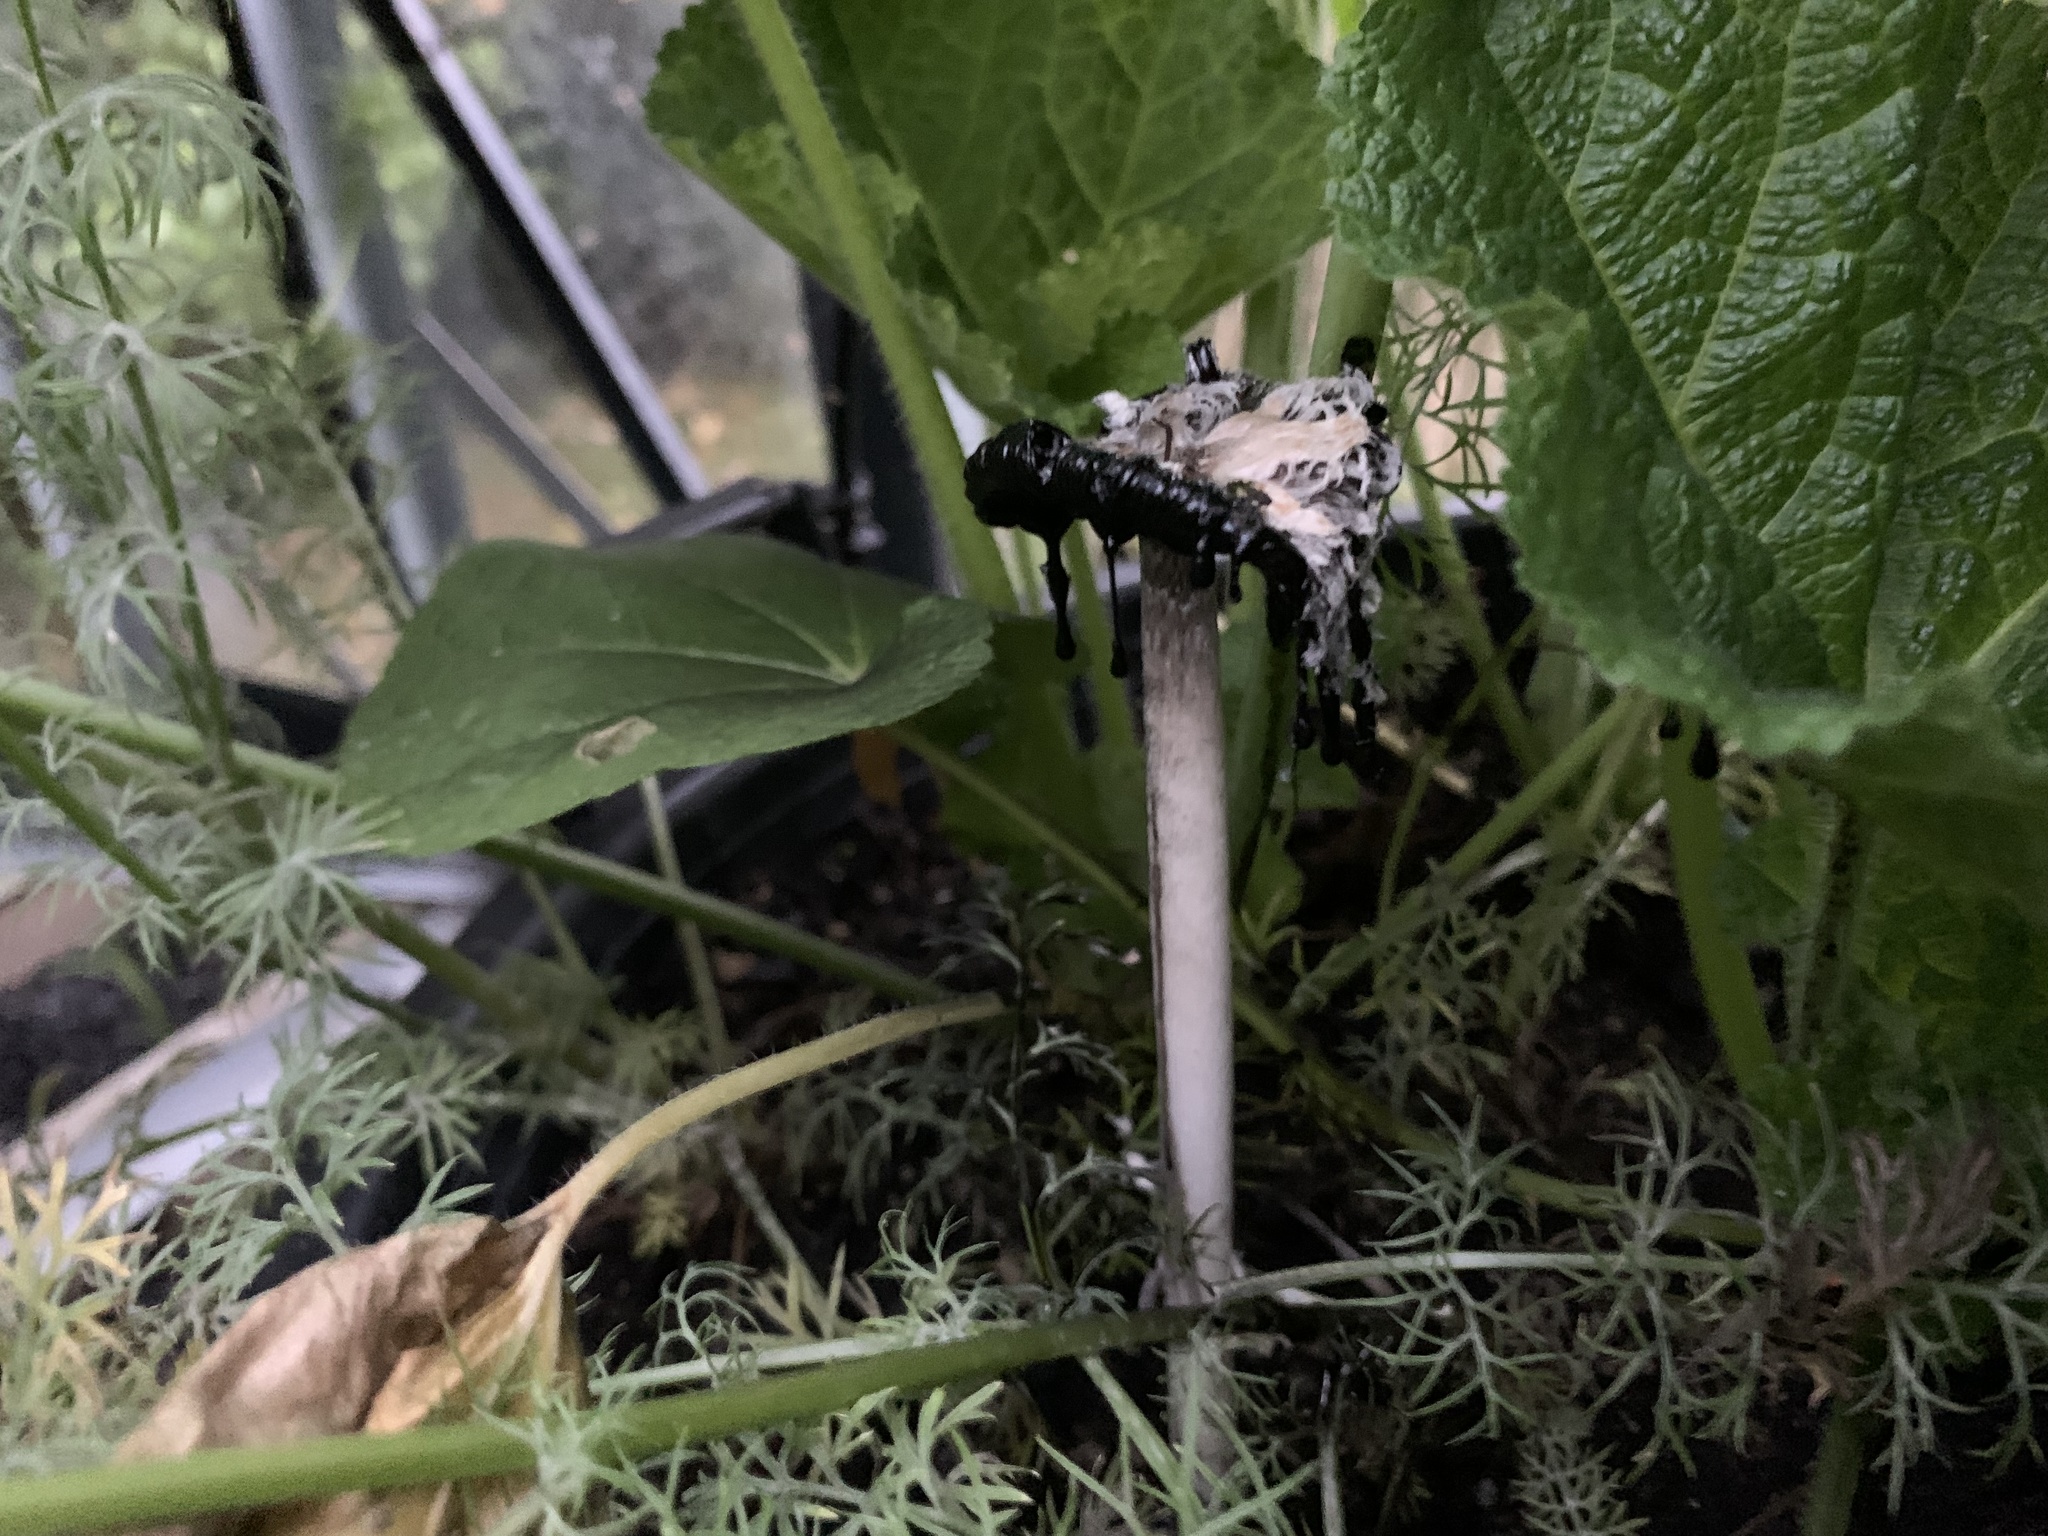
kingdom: Fungi
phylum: Basidiomycota
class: Agaricomycetes
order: Agaricales
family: Agaricaceae
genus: Coprinus
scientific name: Coprinus comatus
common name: Lawyer's wig
